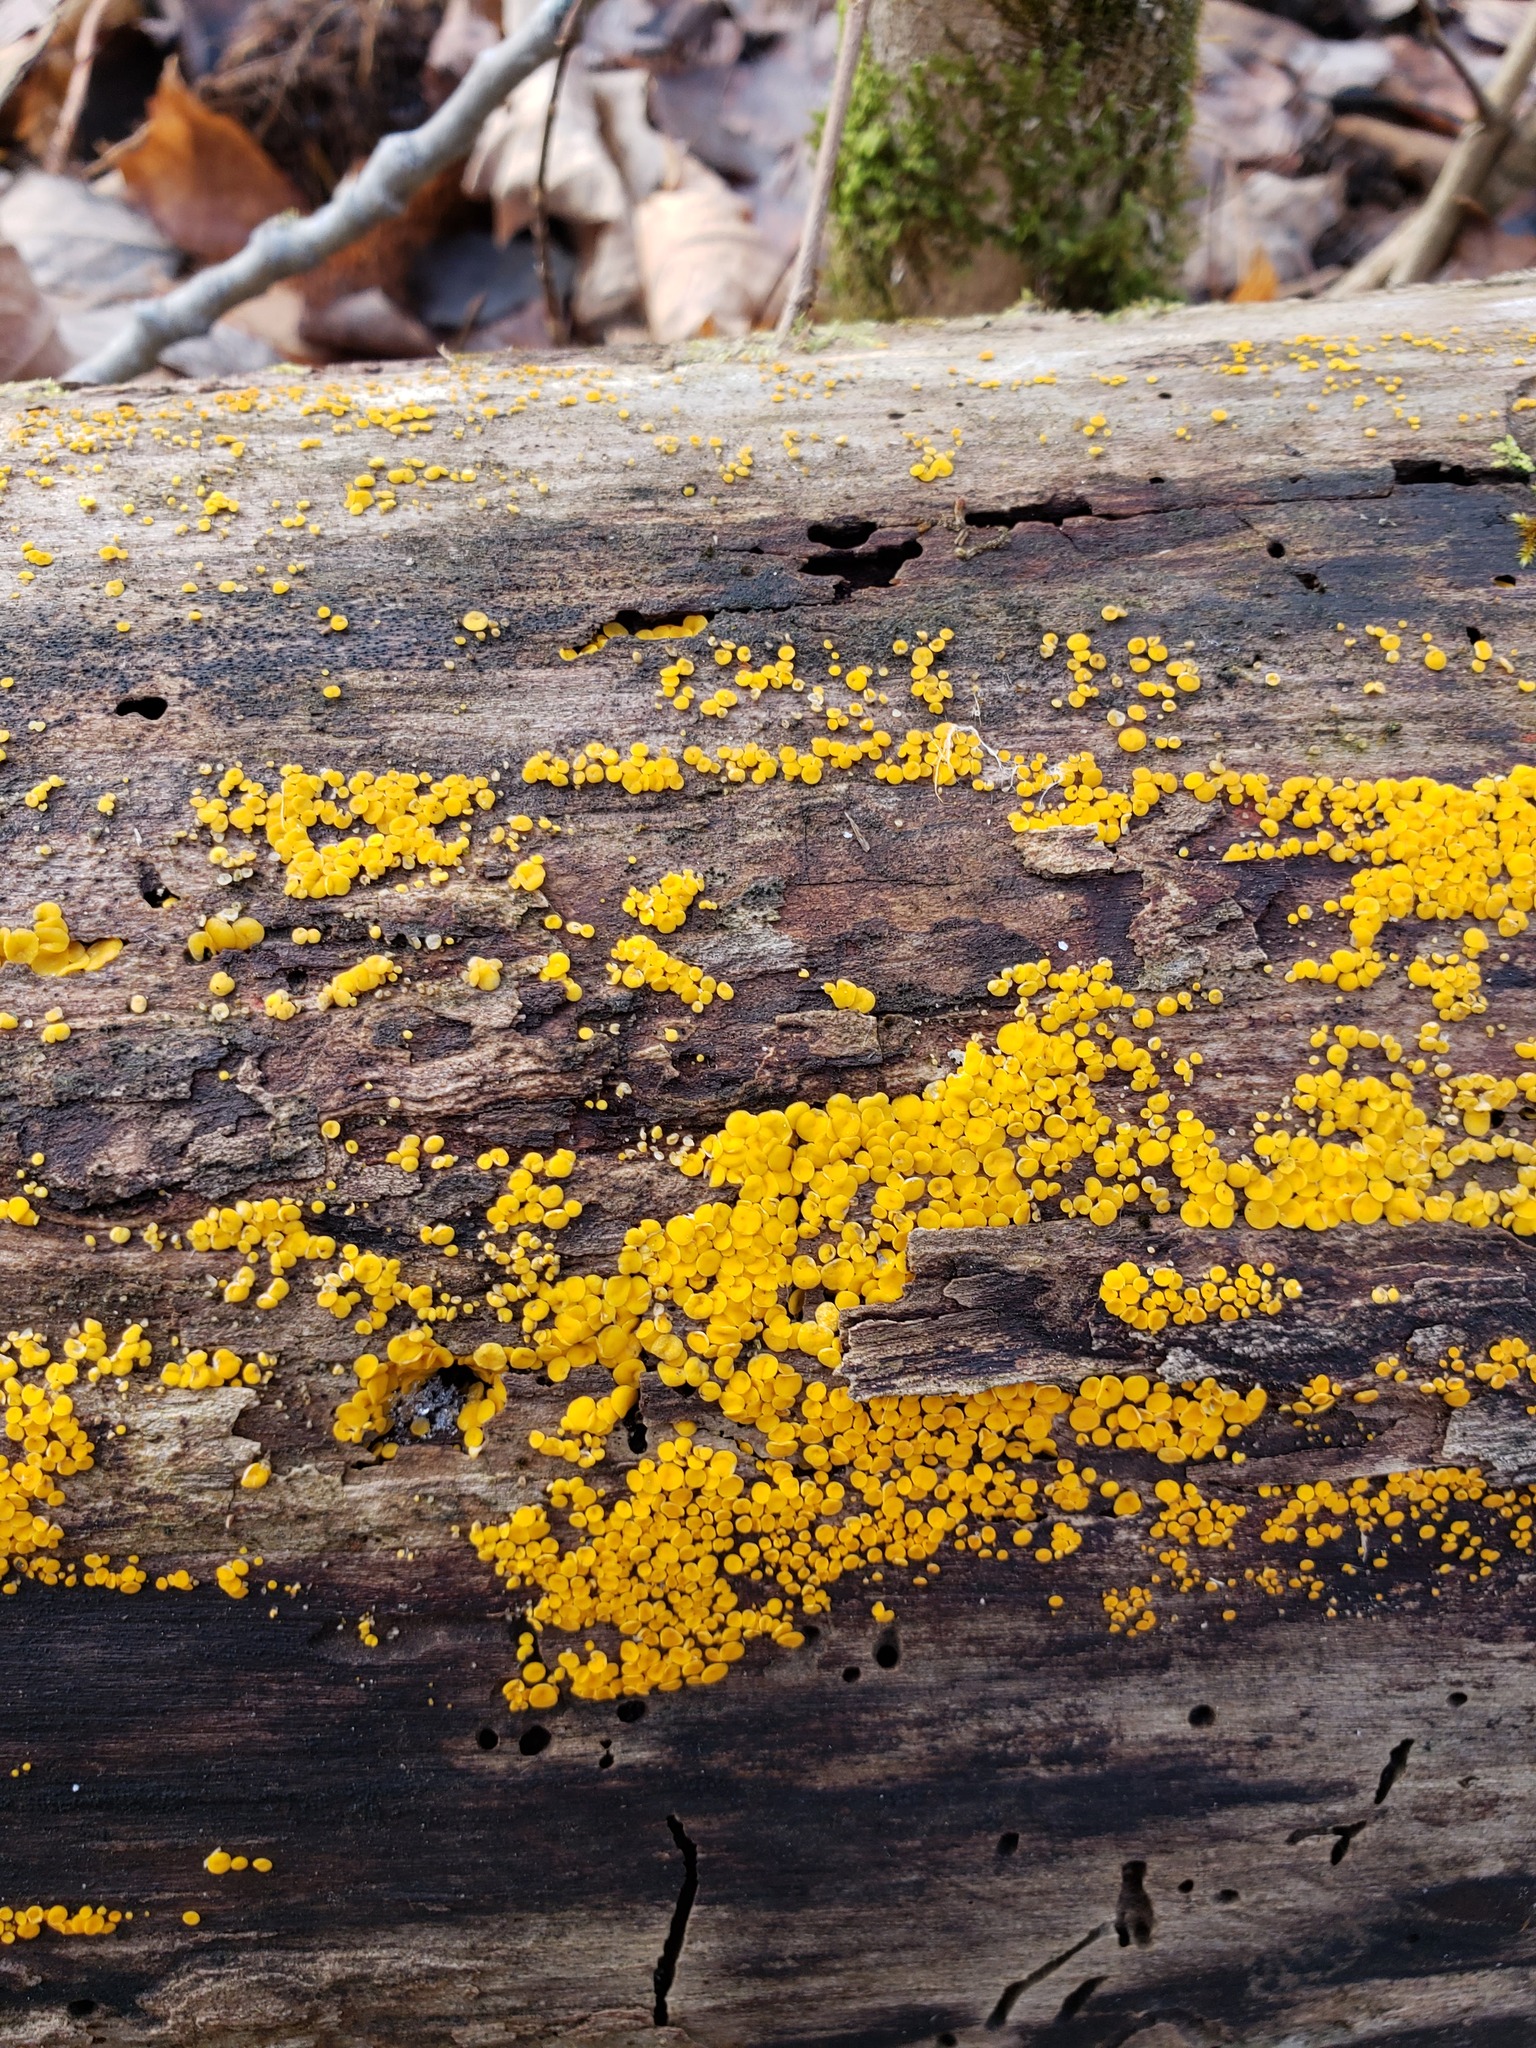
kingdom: Fungi
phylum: Ascomycota
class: Leotiomycetes
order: Helotiales
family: Pezizellaceae
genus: Calycina
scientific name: Calycina citrina
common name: Yellow fairy cups
